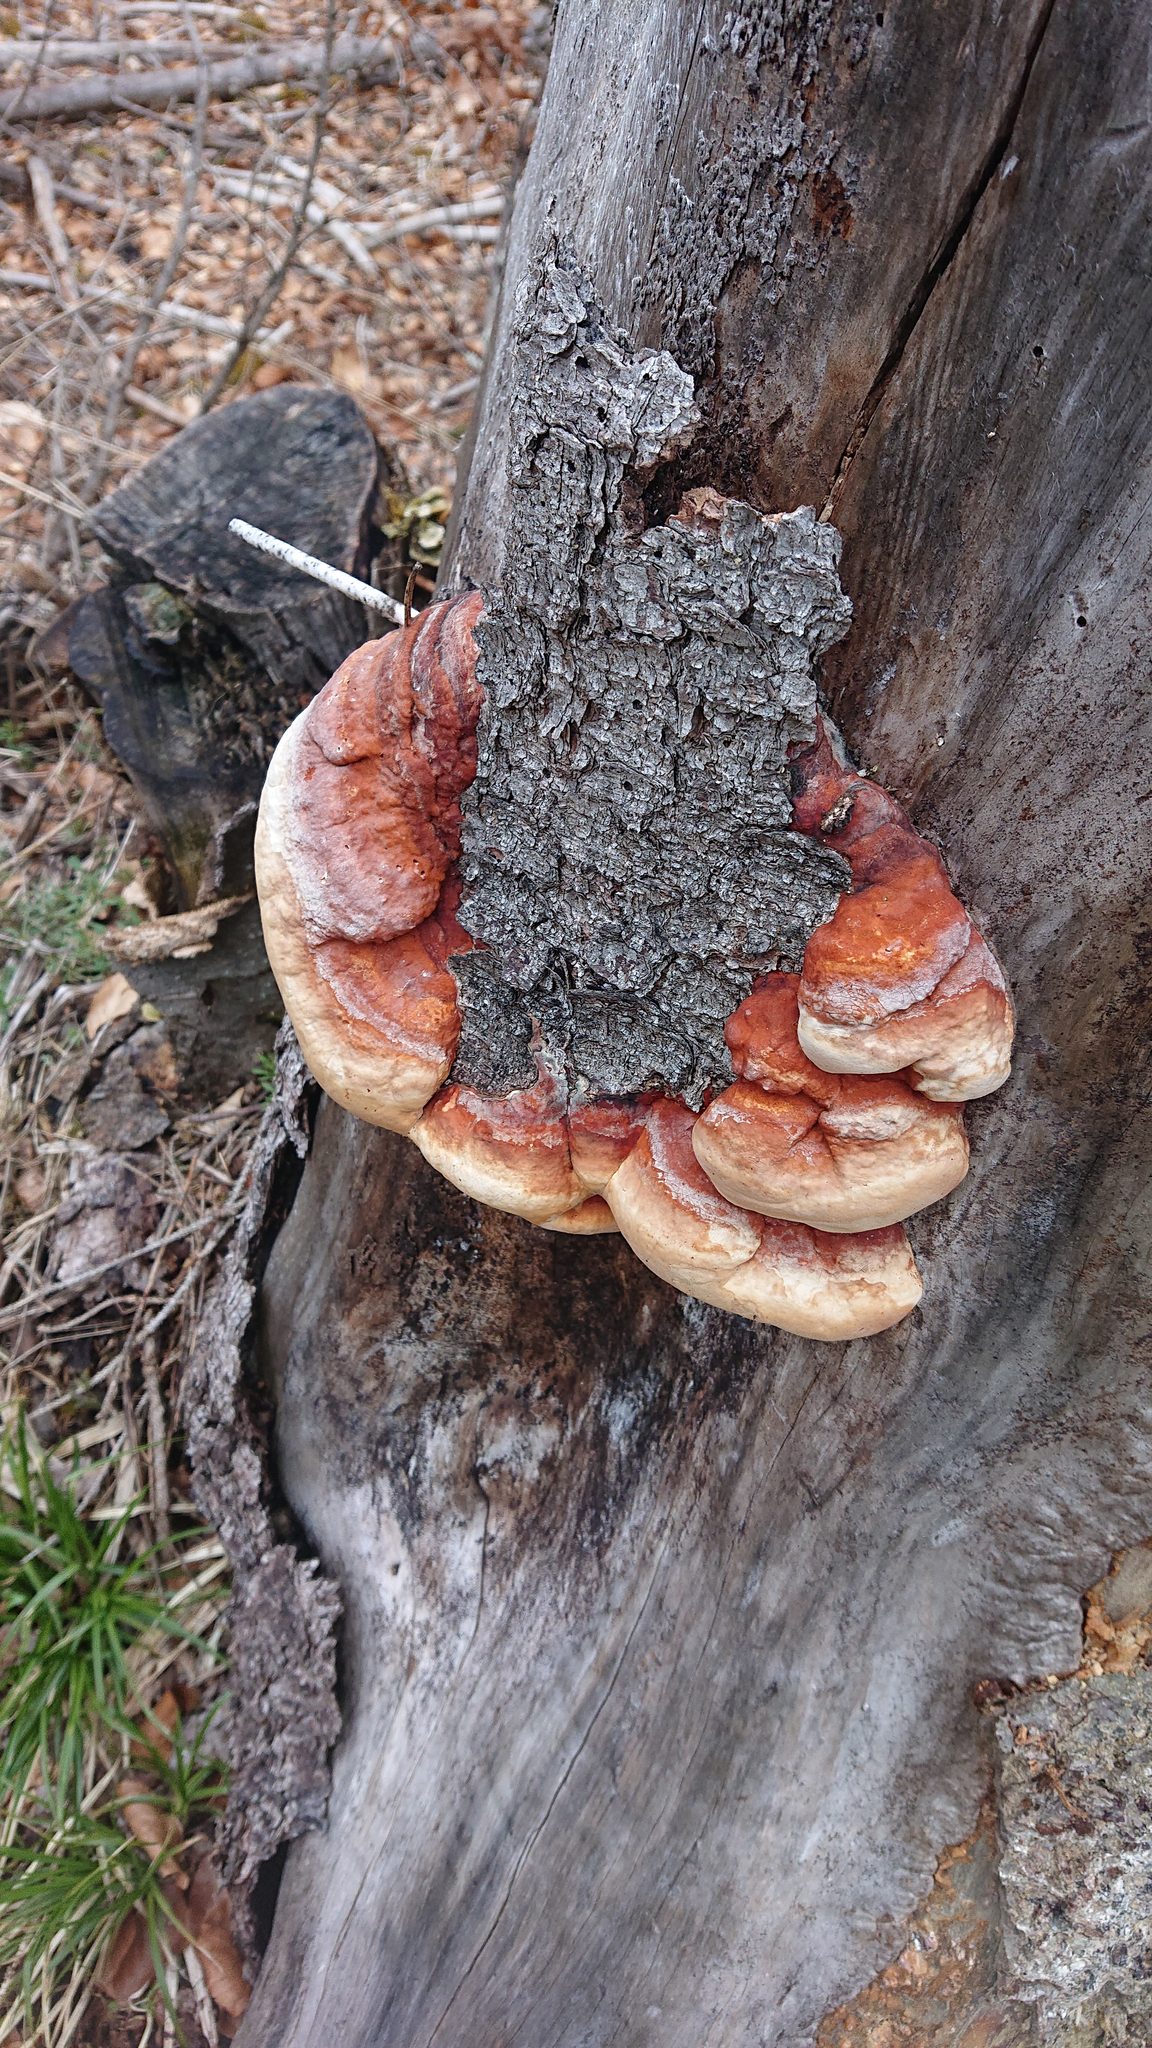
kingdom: Fungi
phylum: Basidiomycota
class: Agaricomycetes
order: Polyporales
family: Fomitopsidaceae
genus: Fomitopsis
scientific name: Fomitopsis pinicola
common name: Red-belted bracket
